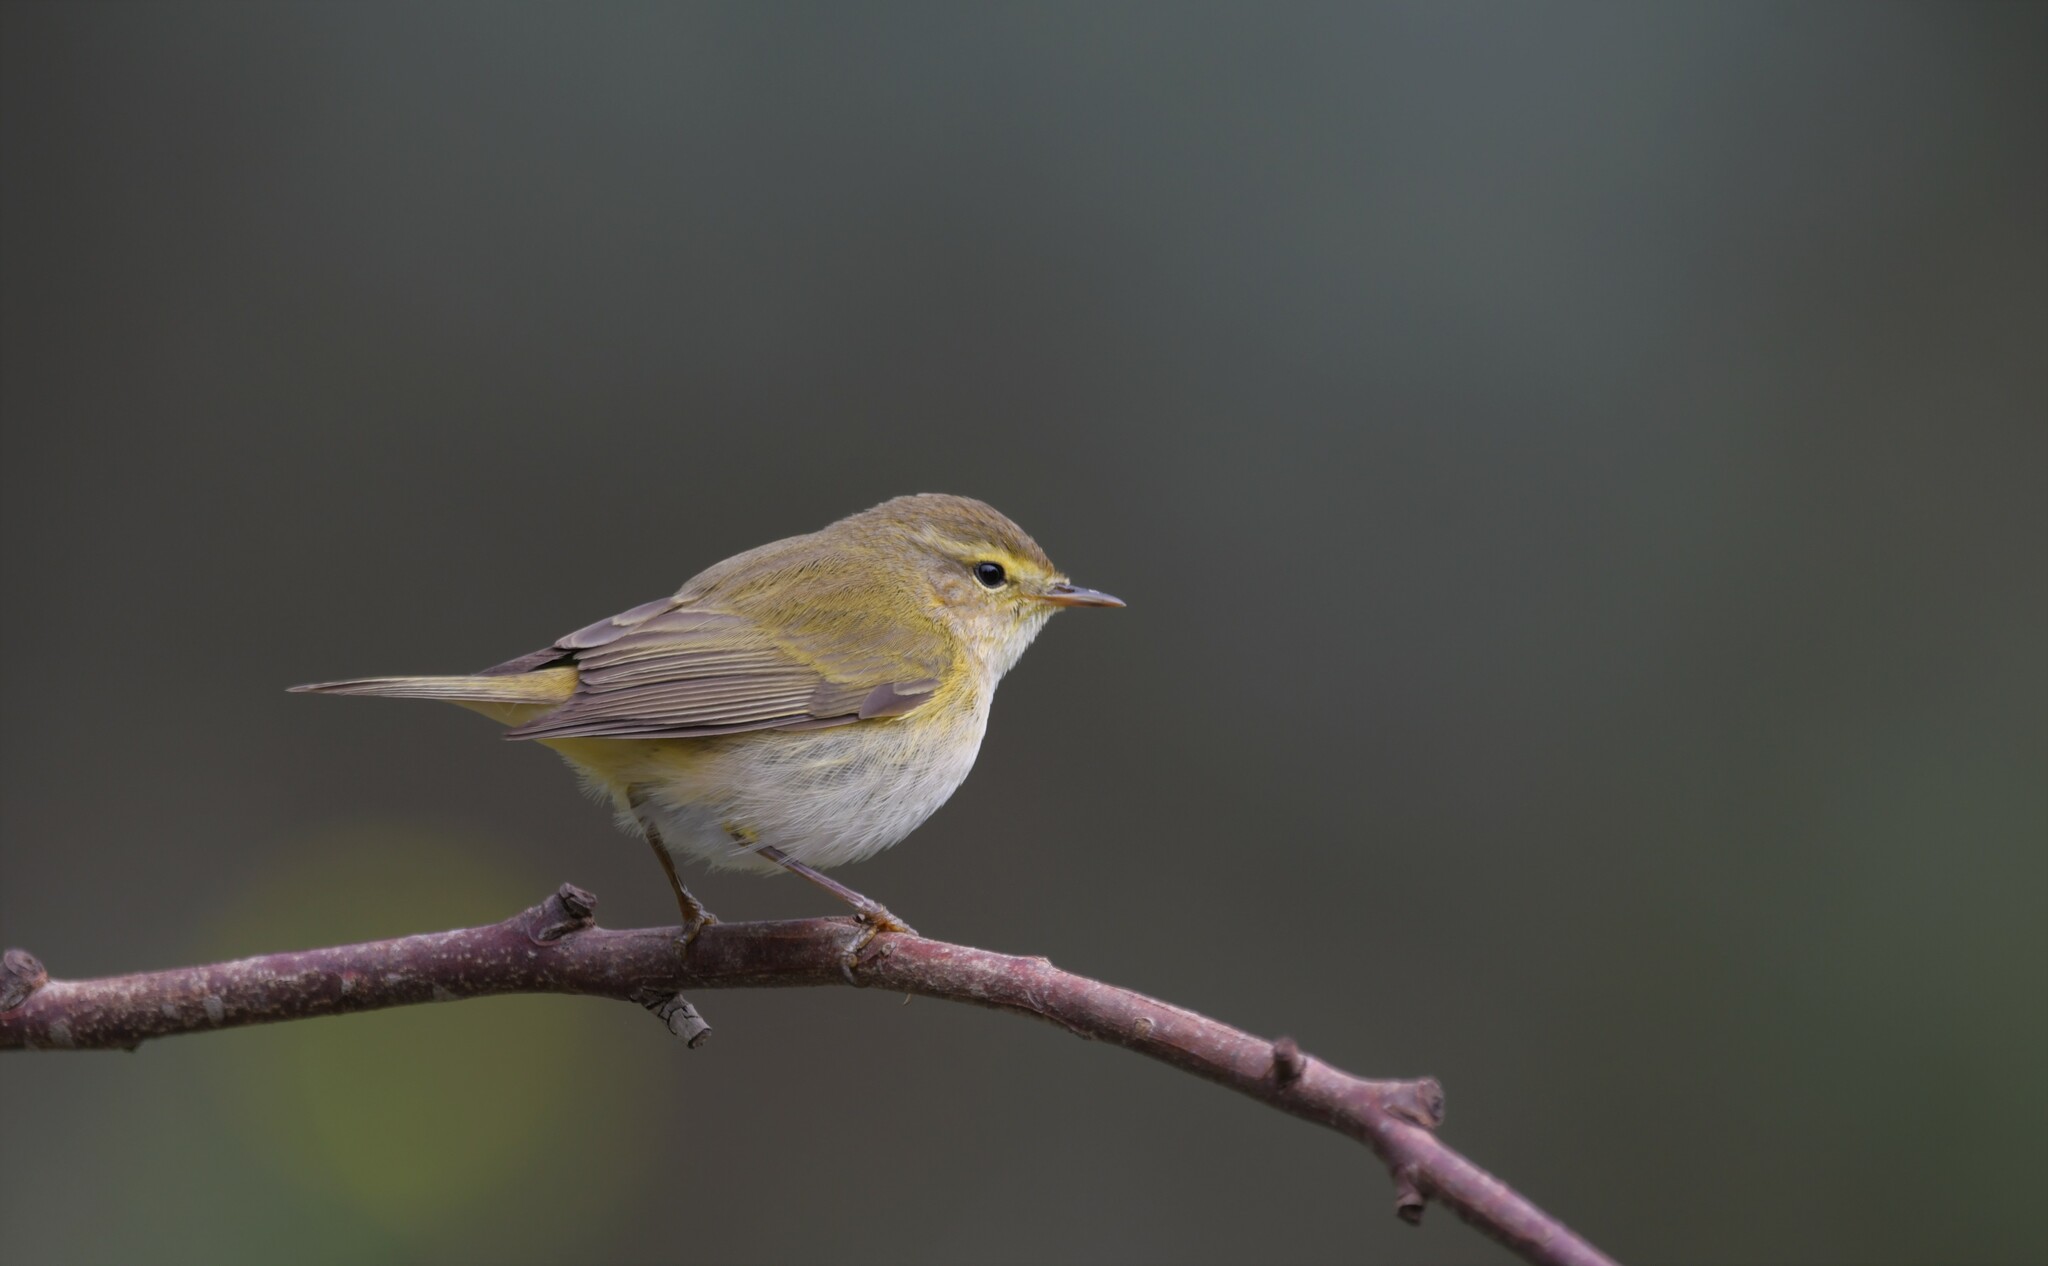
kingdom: Animalia
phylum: Chordata
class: Aves
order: Passeriformes
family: Phylloscopidae
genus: Phylloscopus
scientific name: Phylloscopus ibericus
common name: Iberian chiffchaff
